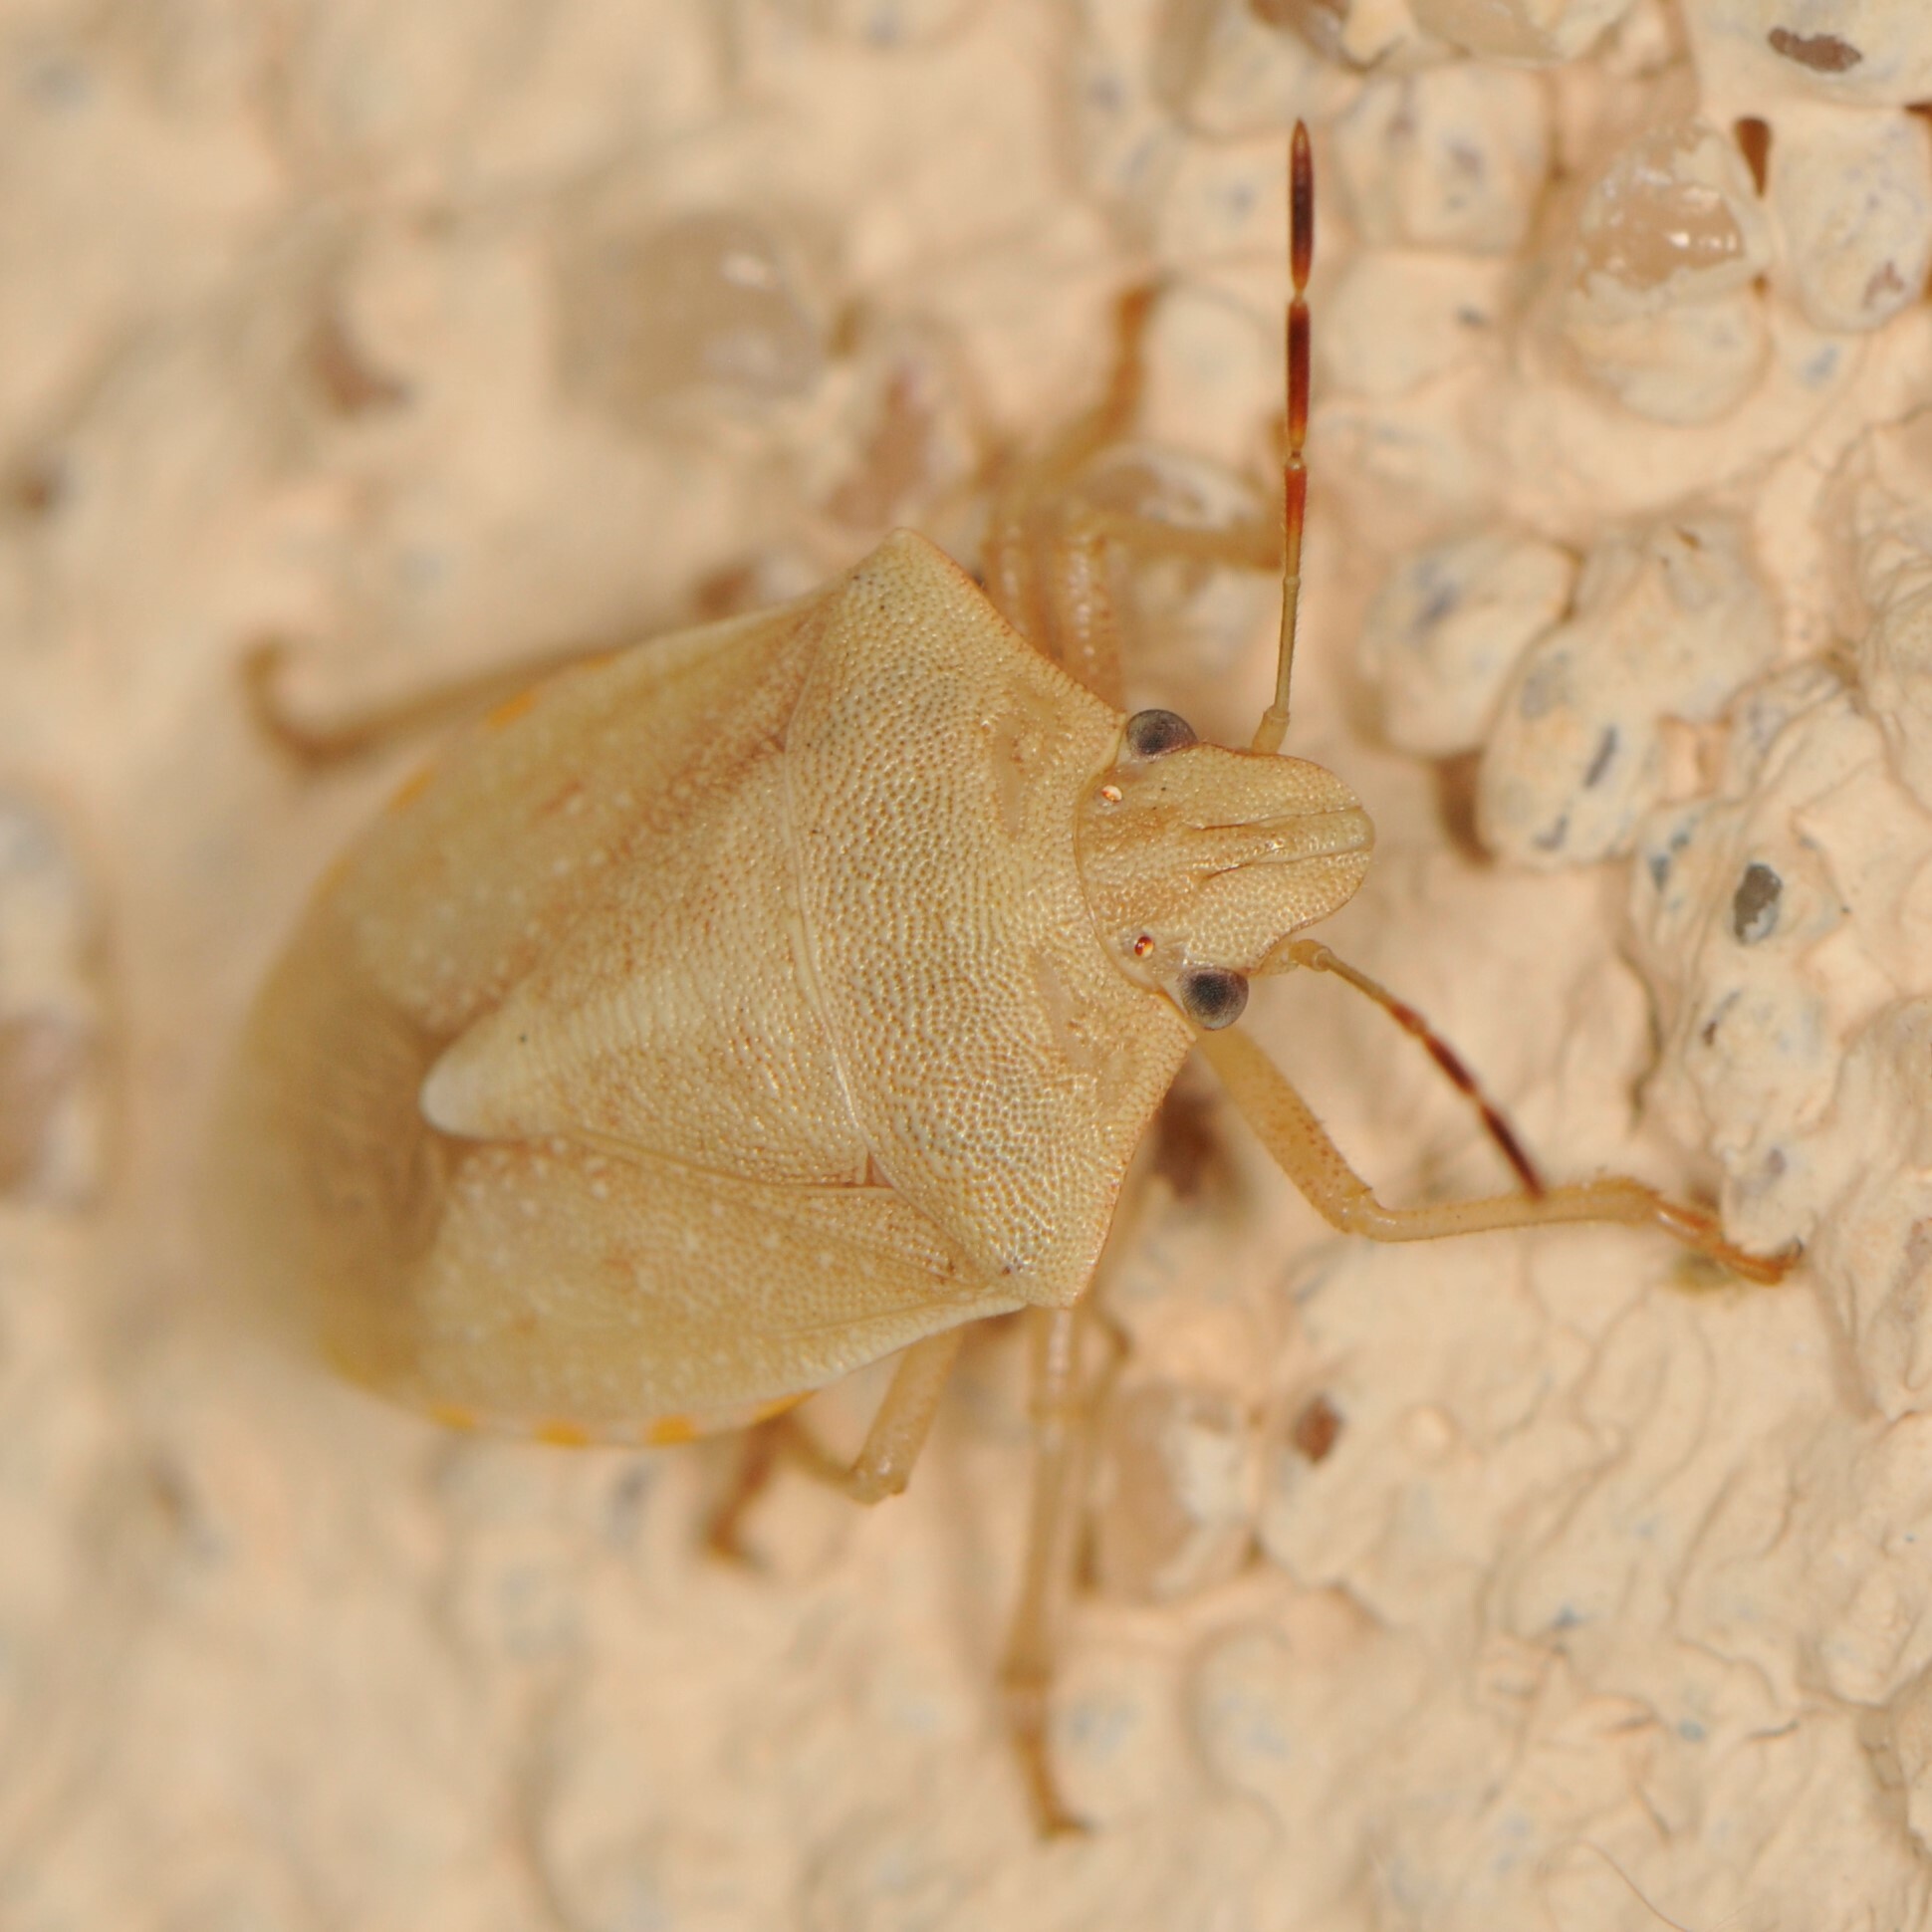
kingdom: Animalia
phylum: Arthropoda
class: Insecta
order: Hemiptera
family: Pentatomidae
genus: Thyanta
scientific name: Thyanta accerra
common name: Stink bug
